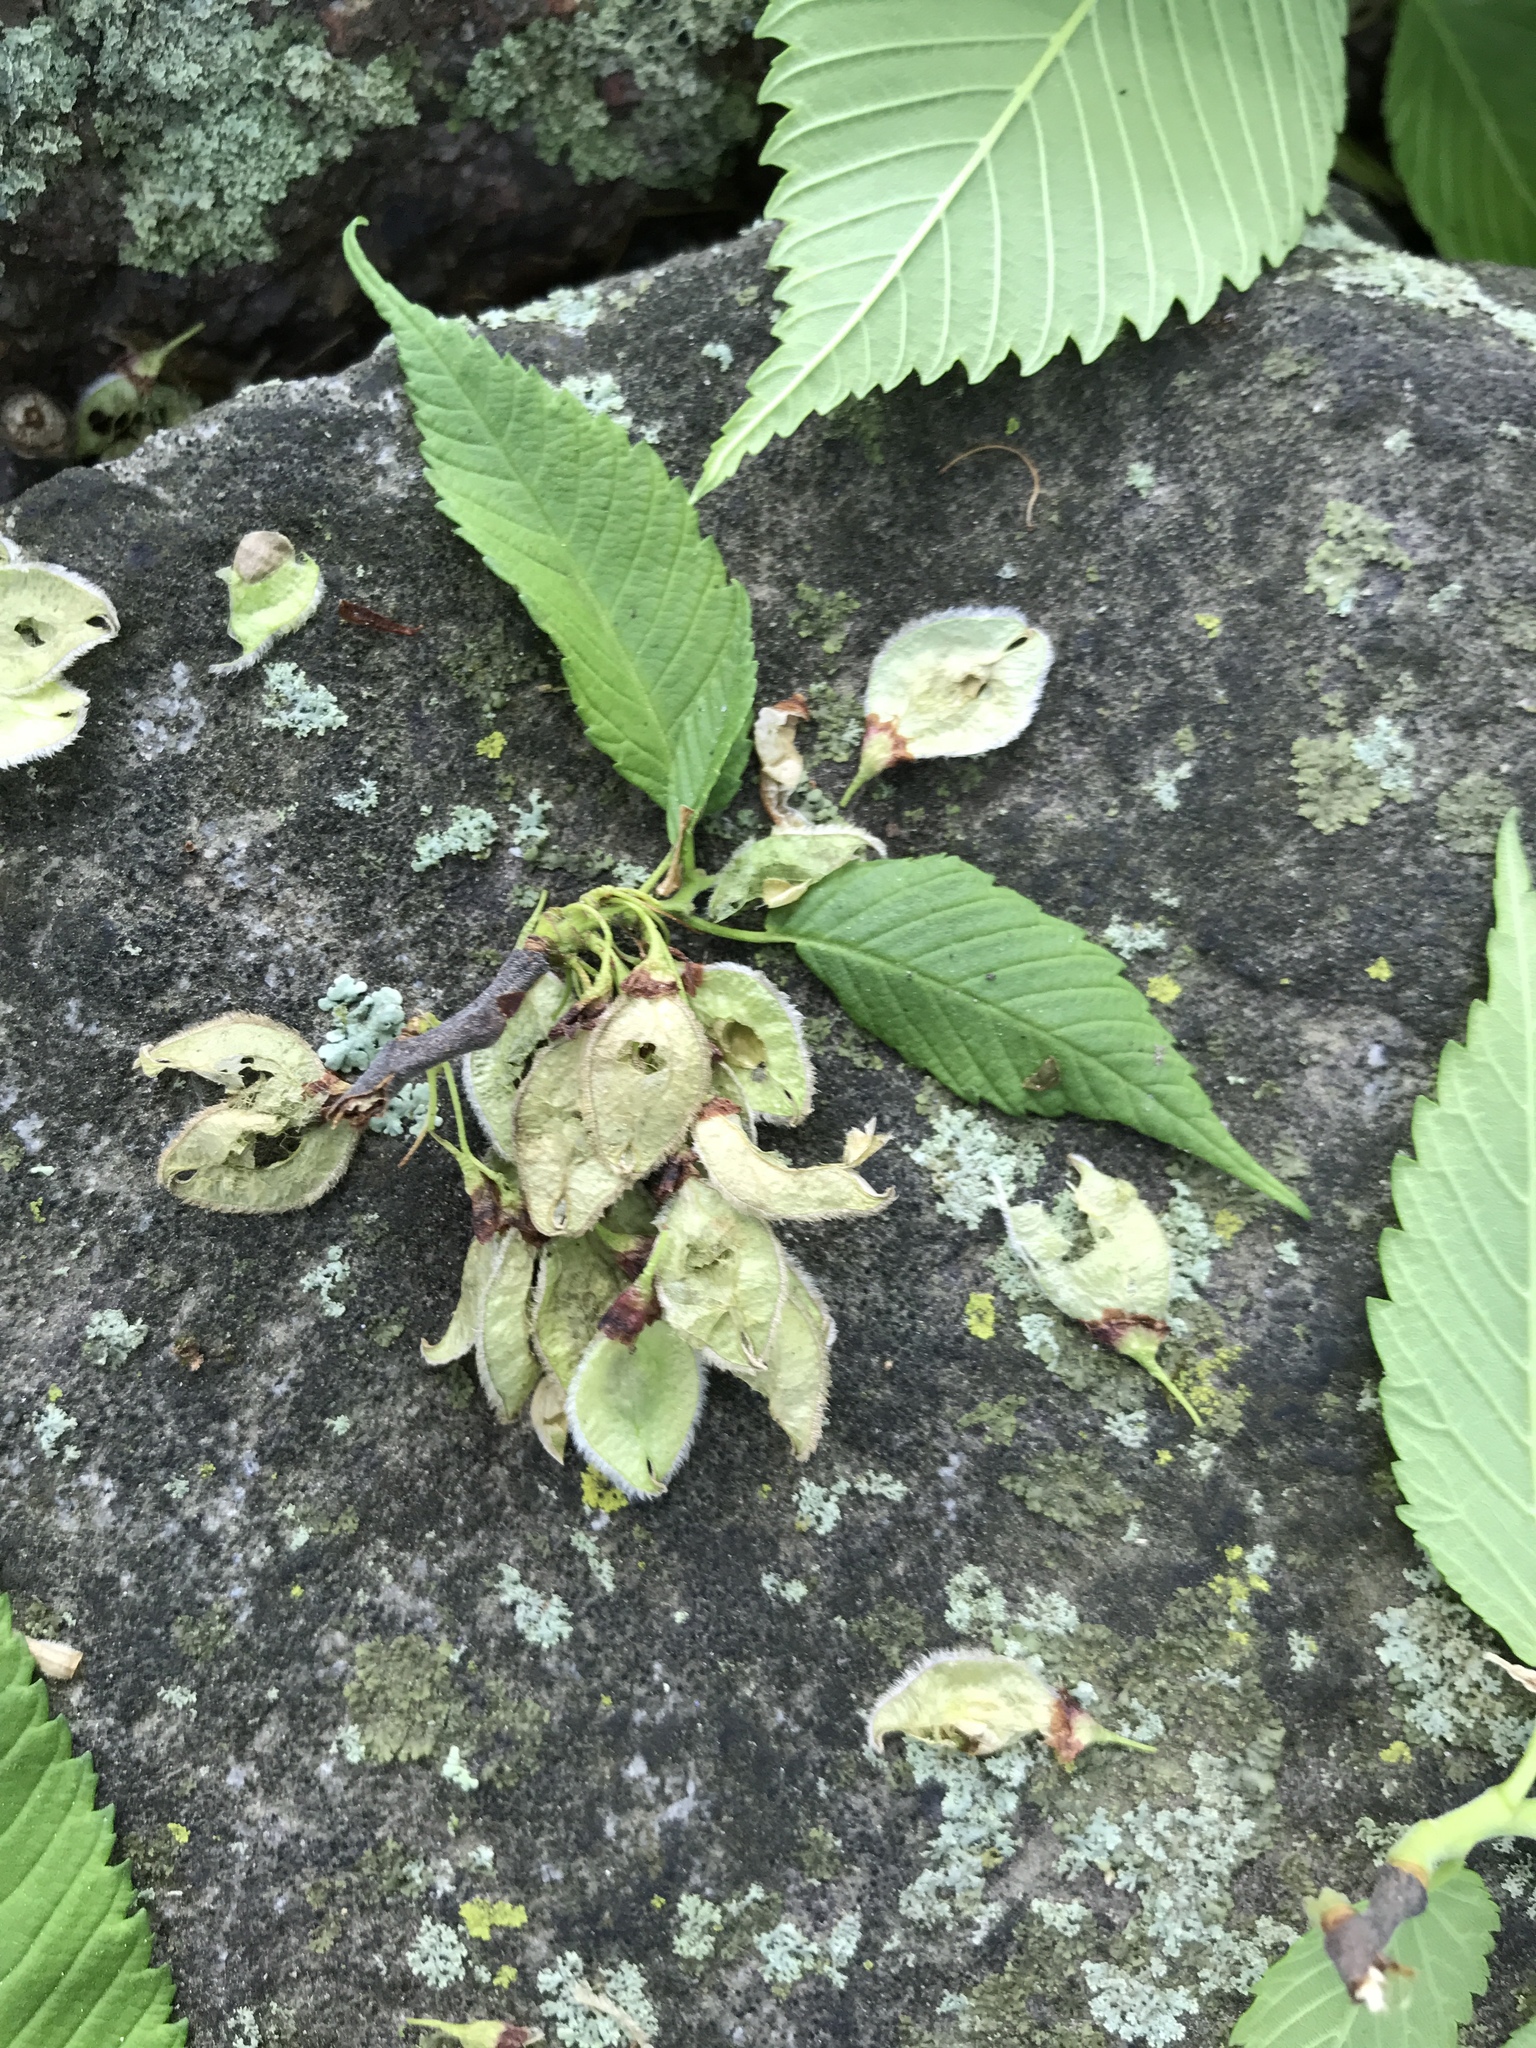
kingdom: Plantae
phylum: Tracheophyta
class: Magnoliopsida
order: Rosales
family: Ulmaceae
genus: Ulmus
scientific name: Ulmus americana
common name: American elm
